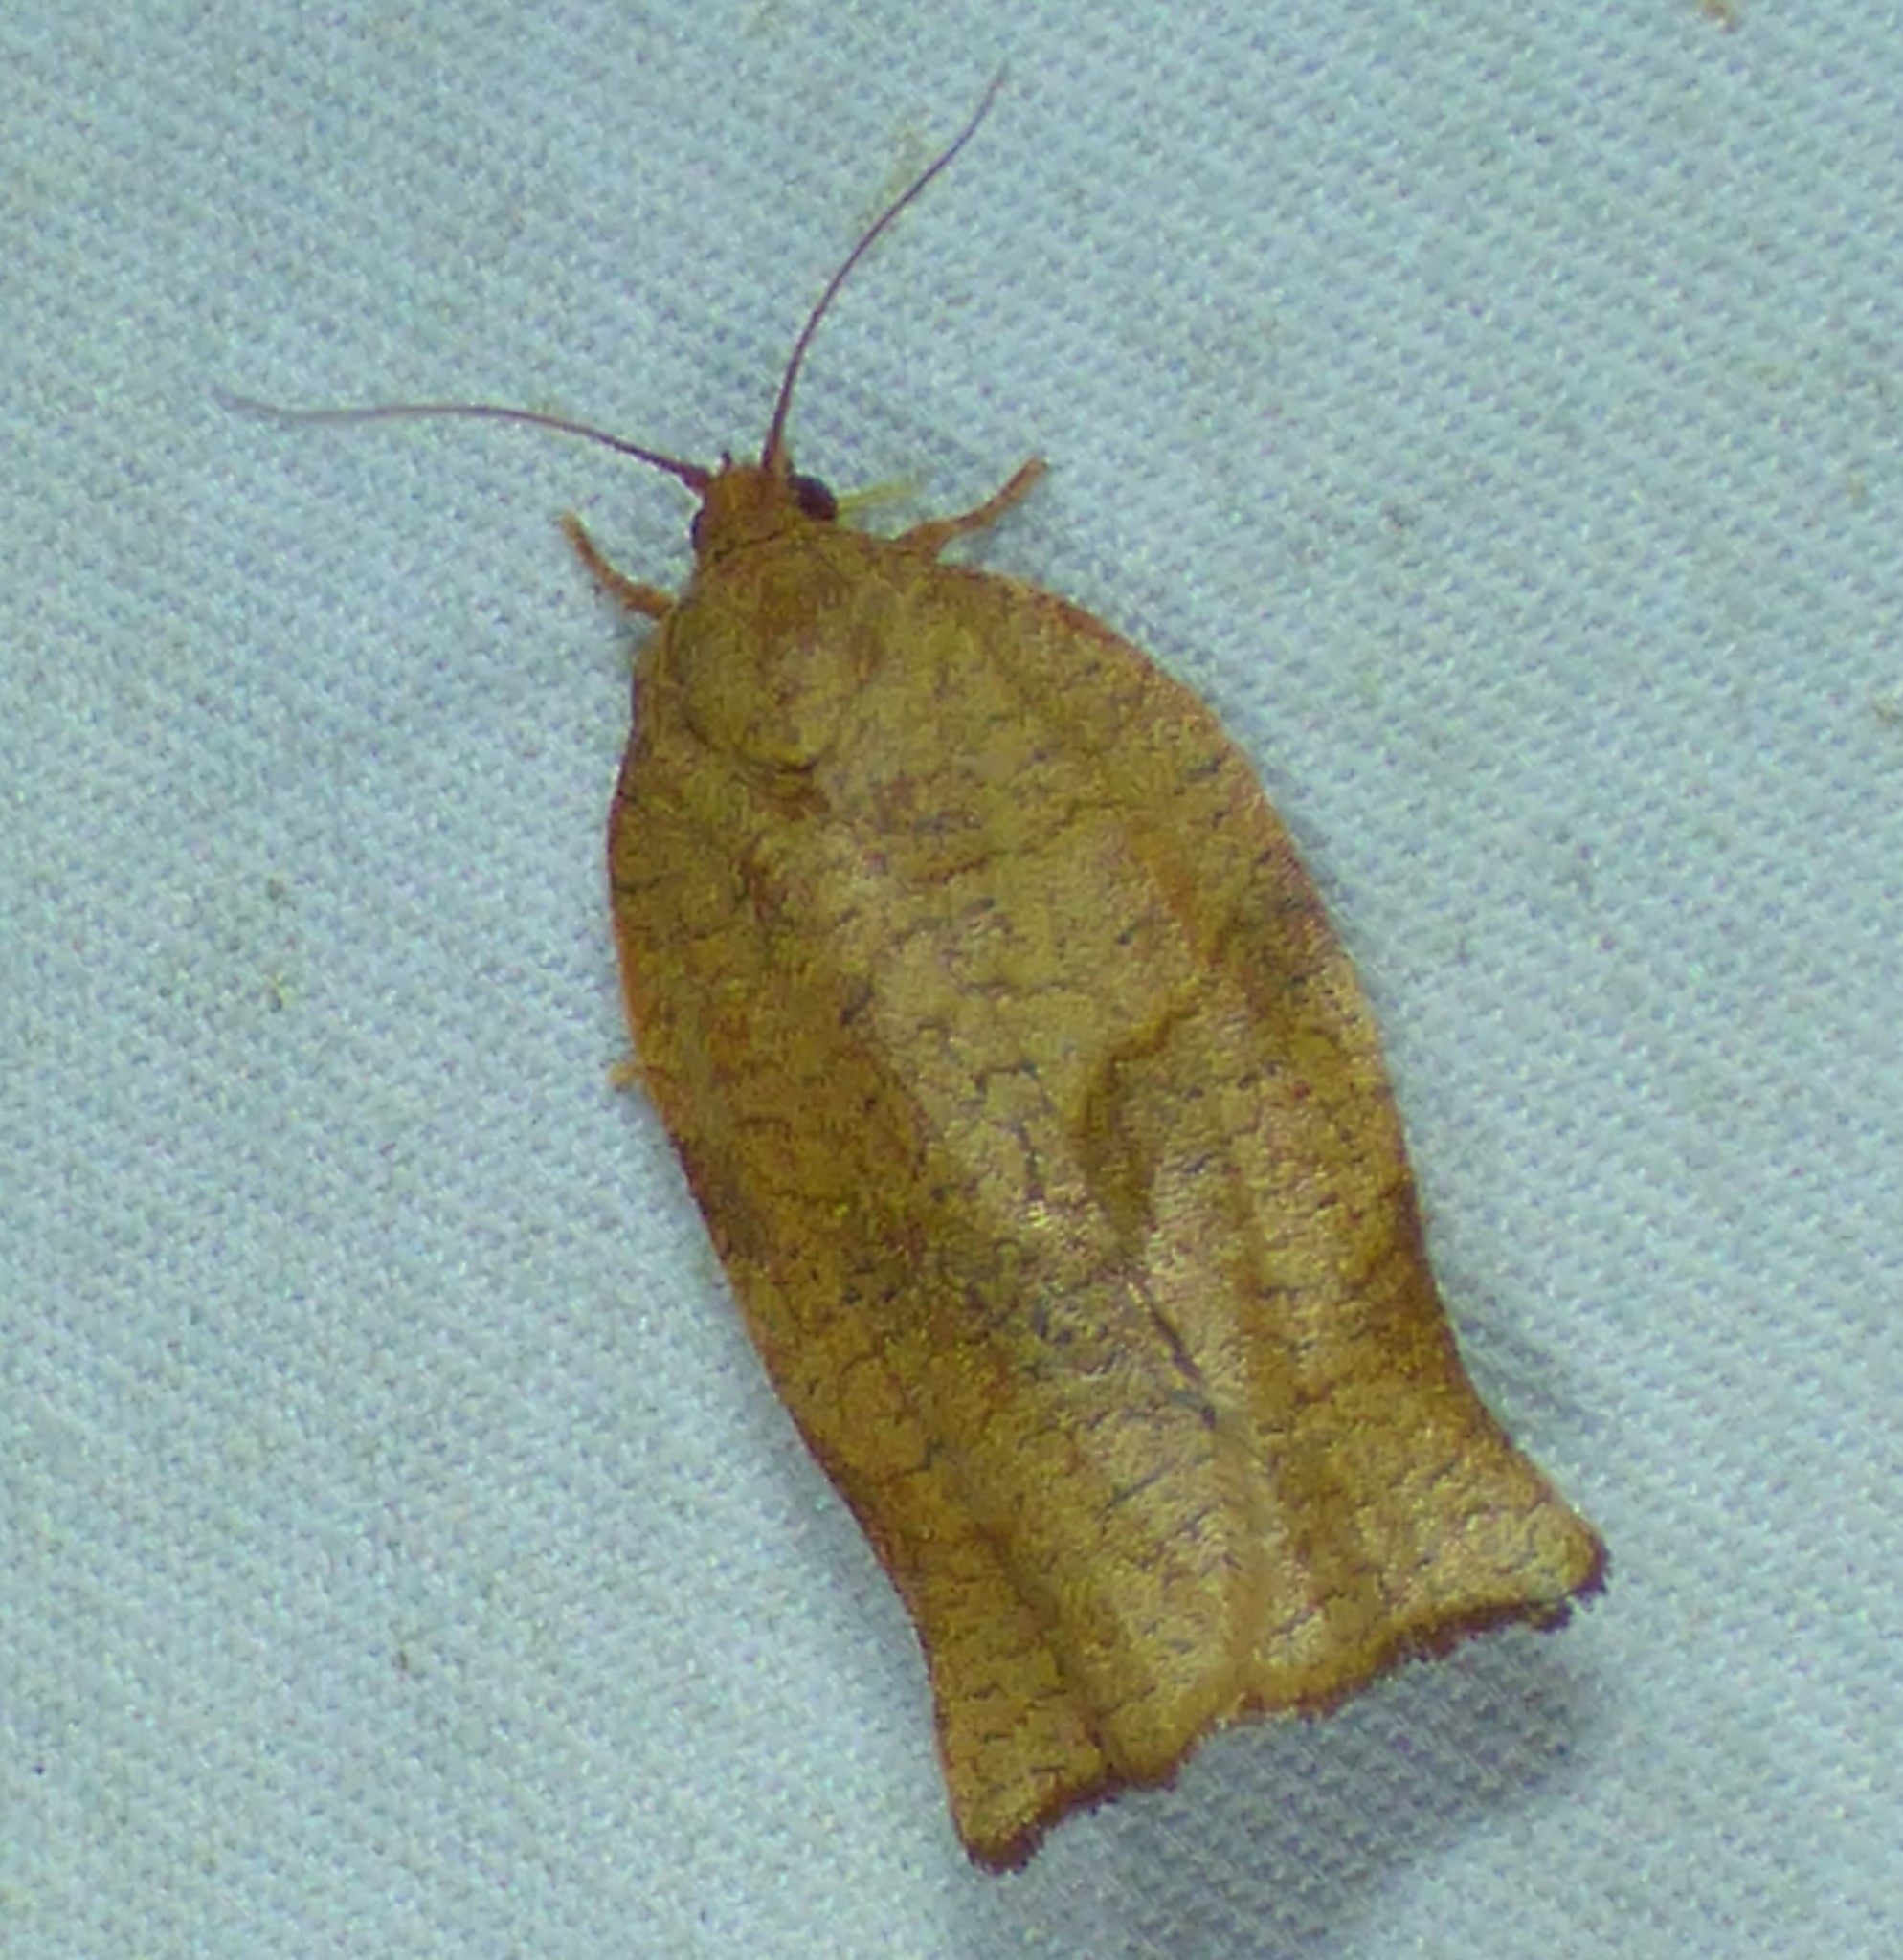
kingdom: Animalia
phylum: Arthropoda
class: Insecta
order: Lepidoptera
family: Tortricidae
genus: Choristoneura
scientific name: Choristoneura rosaceana
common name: Oblique-banded leafroller moth
